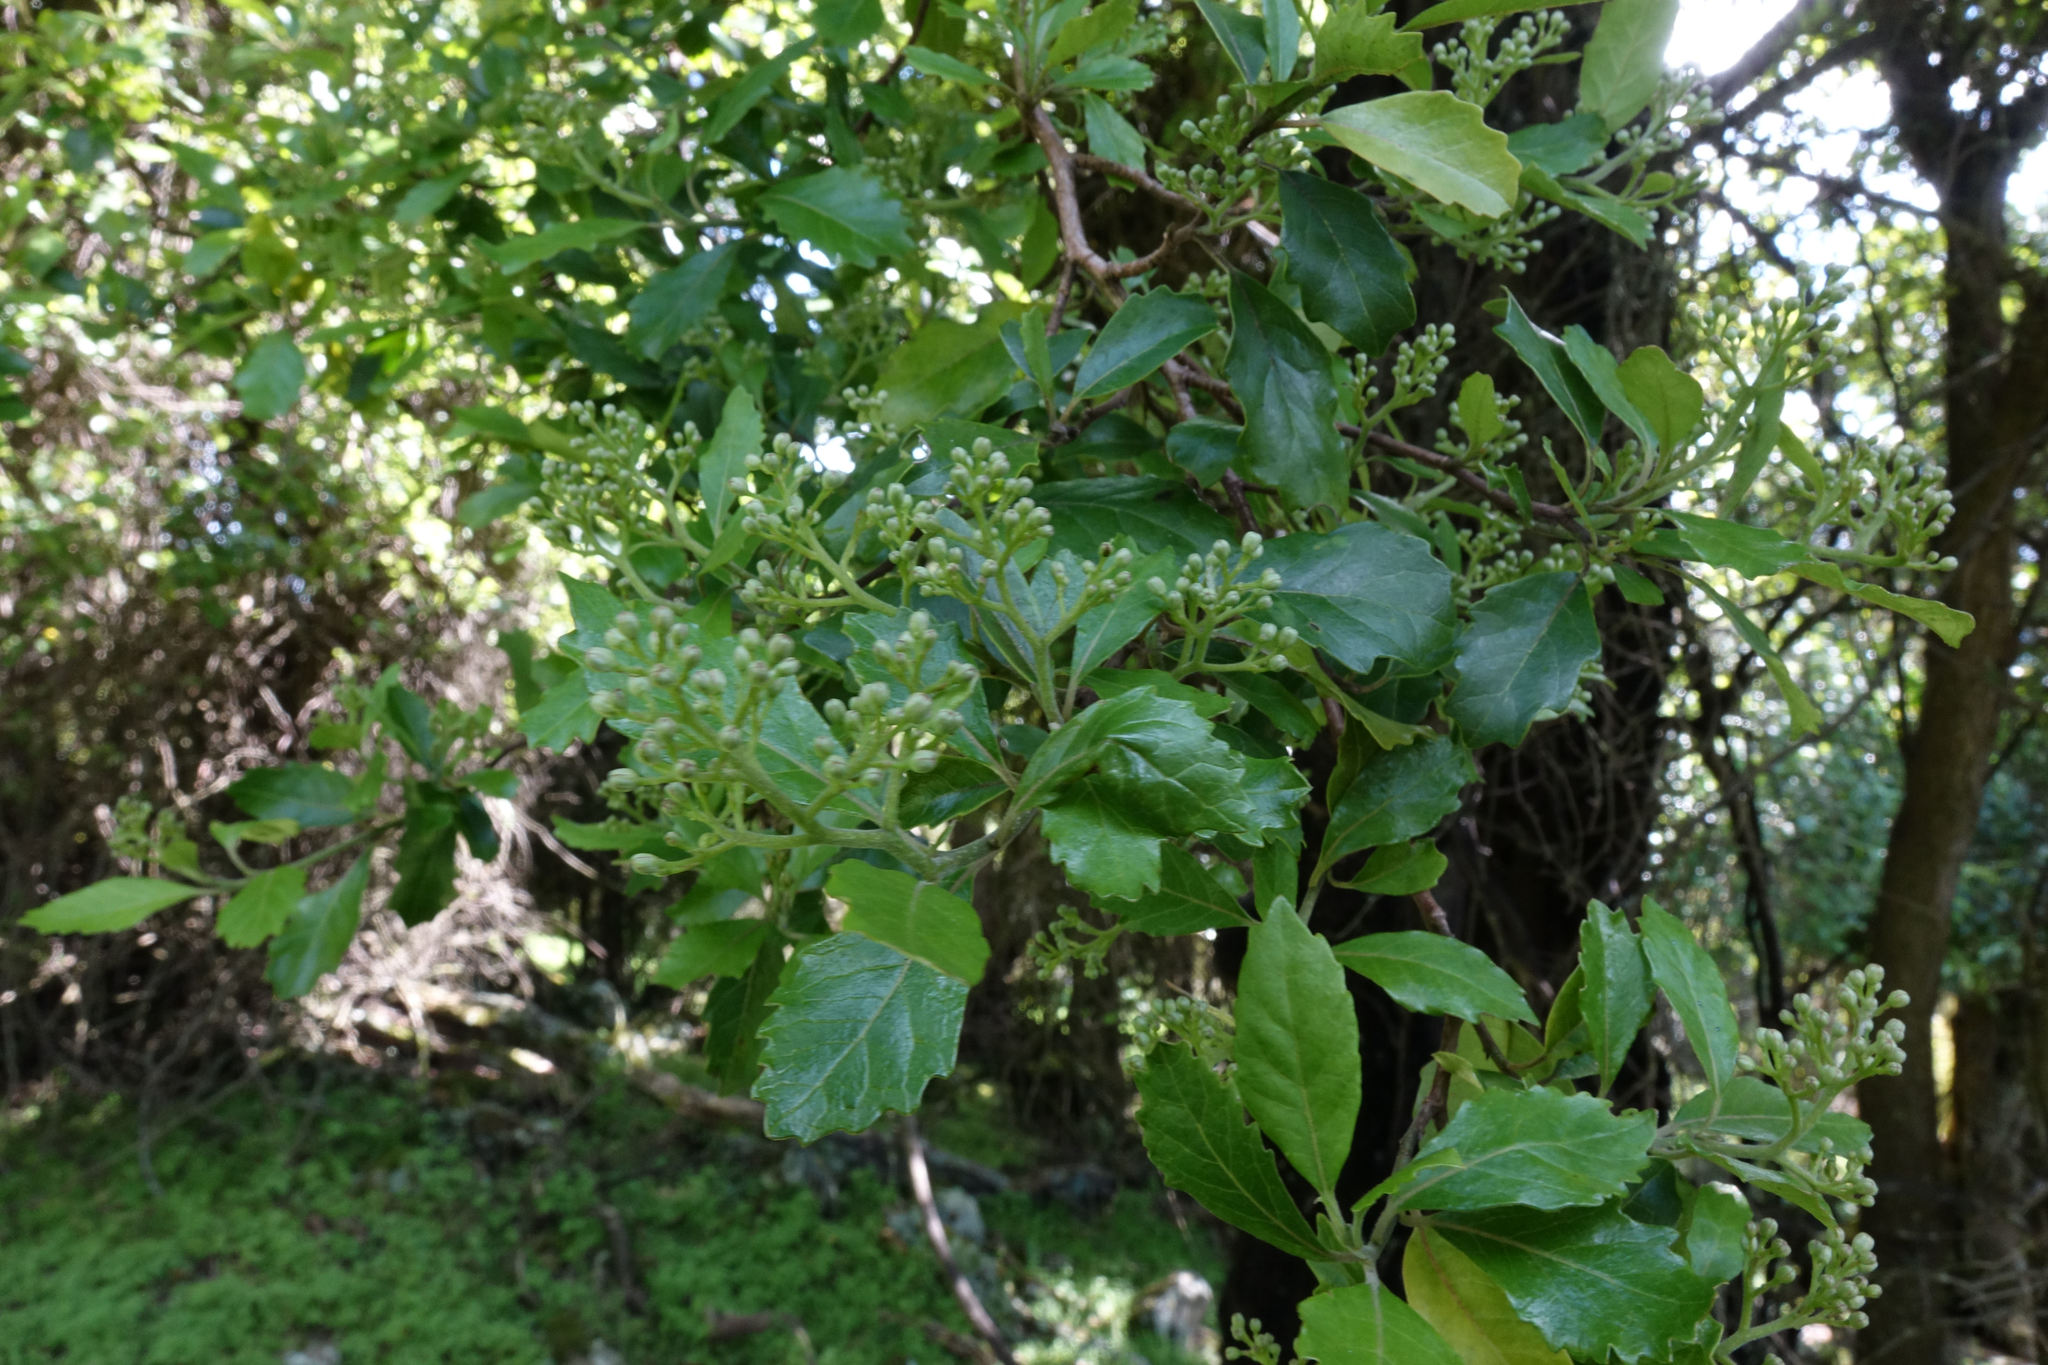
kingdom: Plantae
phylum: Tracheophyta
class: Magnoliopsida
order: Apiales
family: Pennantiaceae
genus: Pennantia
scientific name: Pennantia corymbosa
